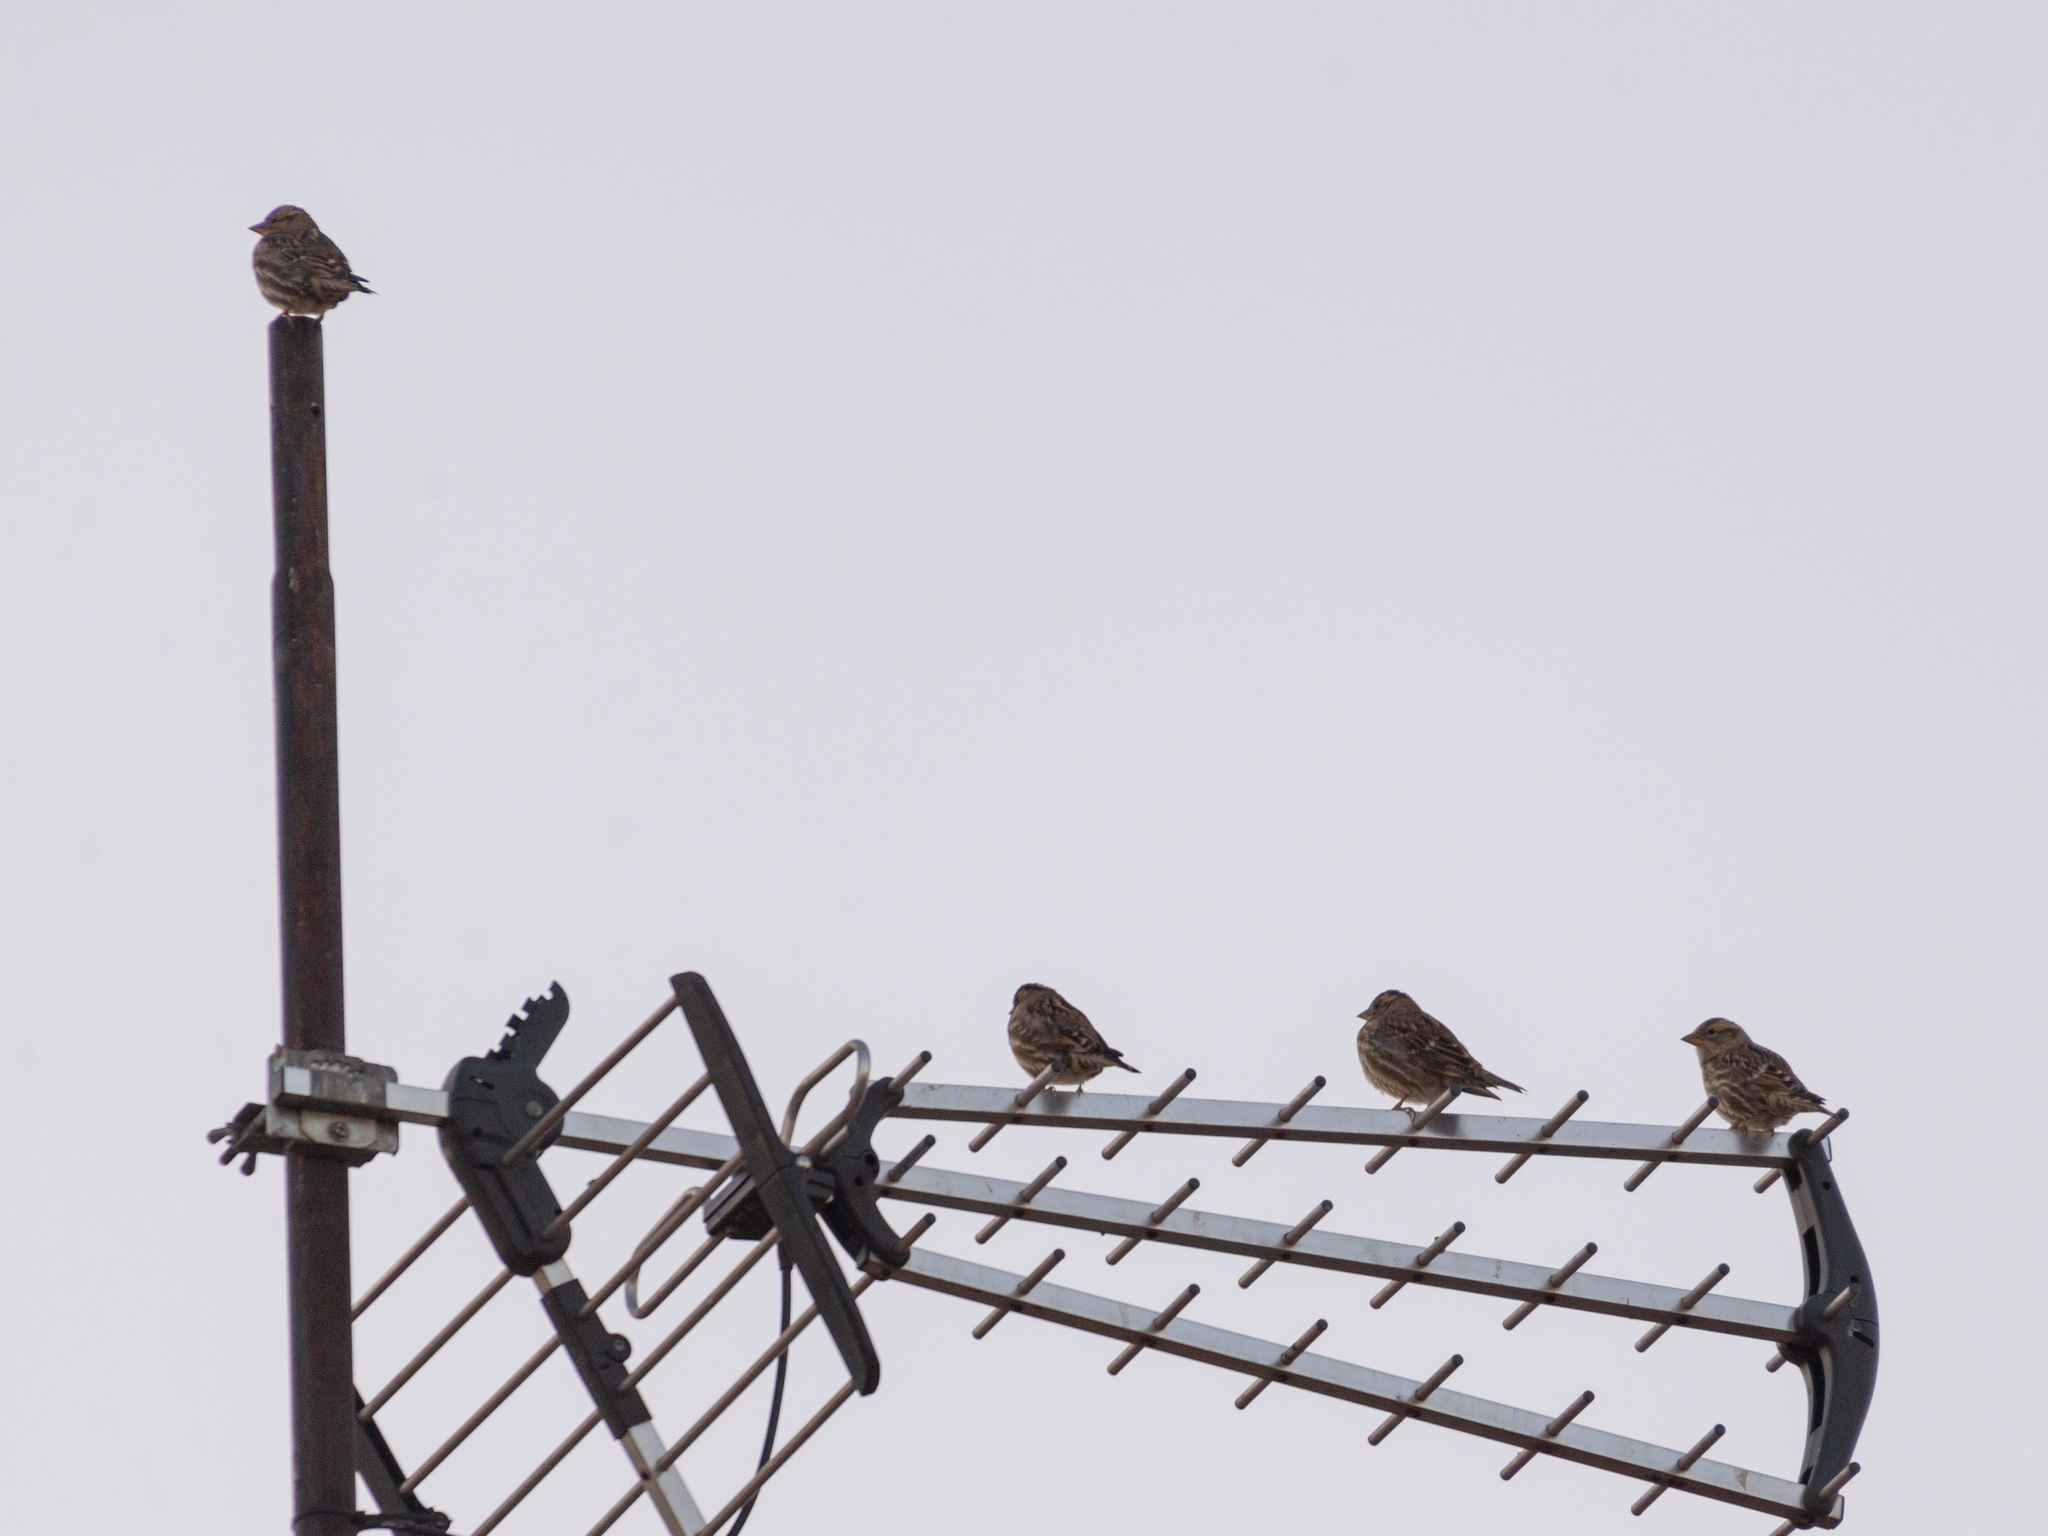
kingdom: Animalia
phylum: Chordata
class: Aves
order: Passeriformes
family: Passeridae
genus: Petronia
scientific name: Petronia petronia
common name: Rock sparrow
